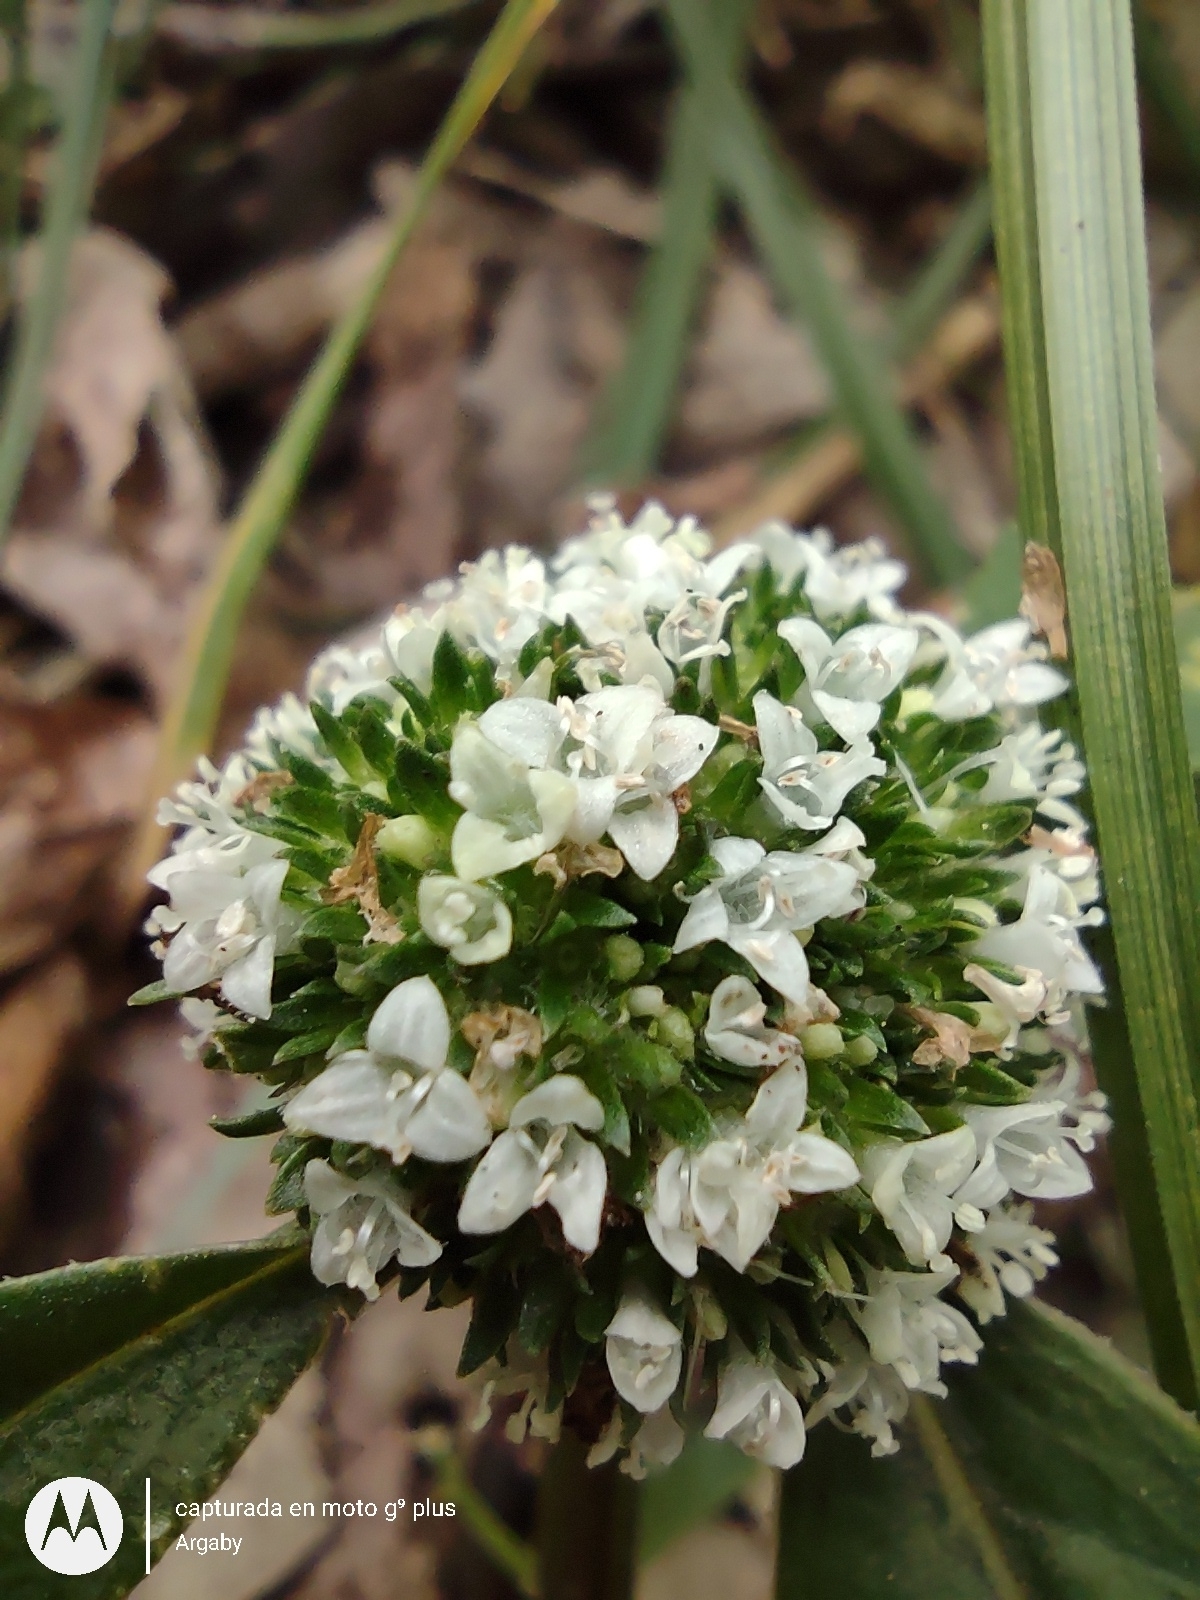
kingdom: Plantae
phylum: Tracheophyta
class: Magnoliopsida
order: Gentianales
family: Rubiaceae
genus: Spermacoce
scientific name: Spermacoce dasycephala
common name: False buttonweed
